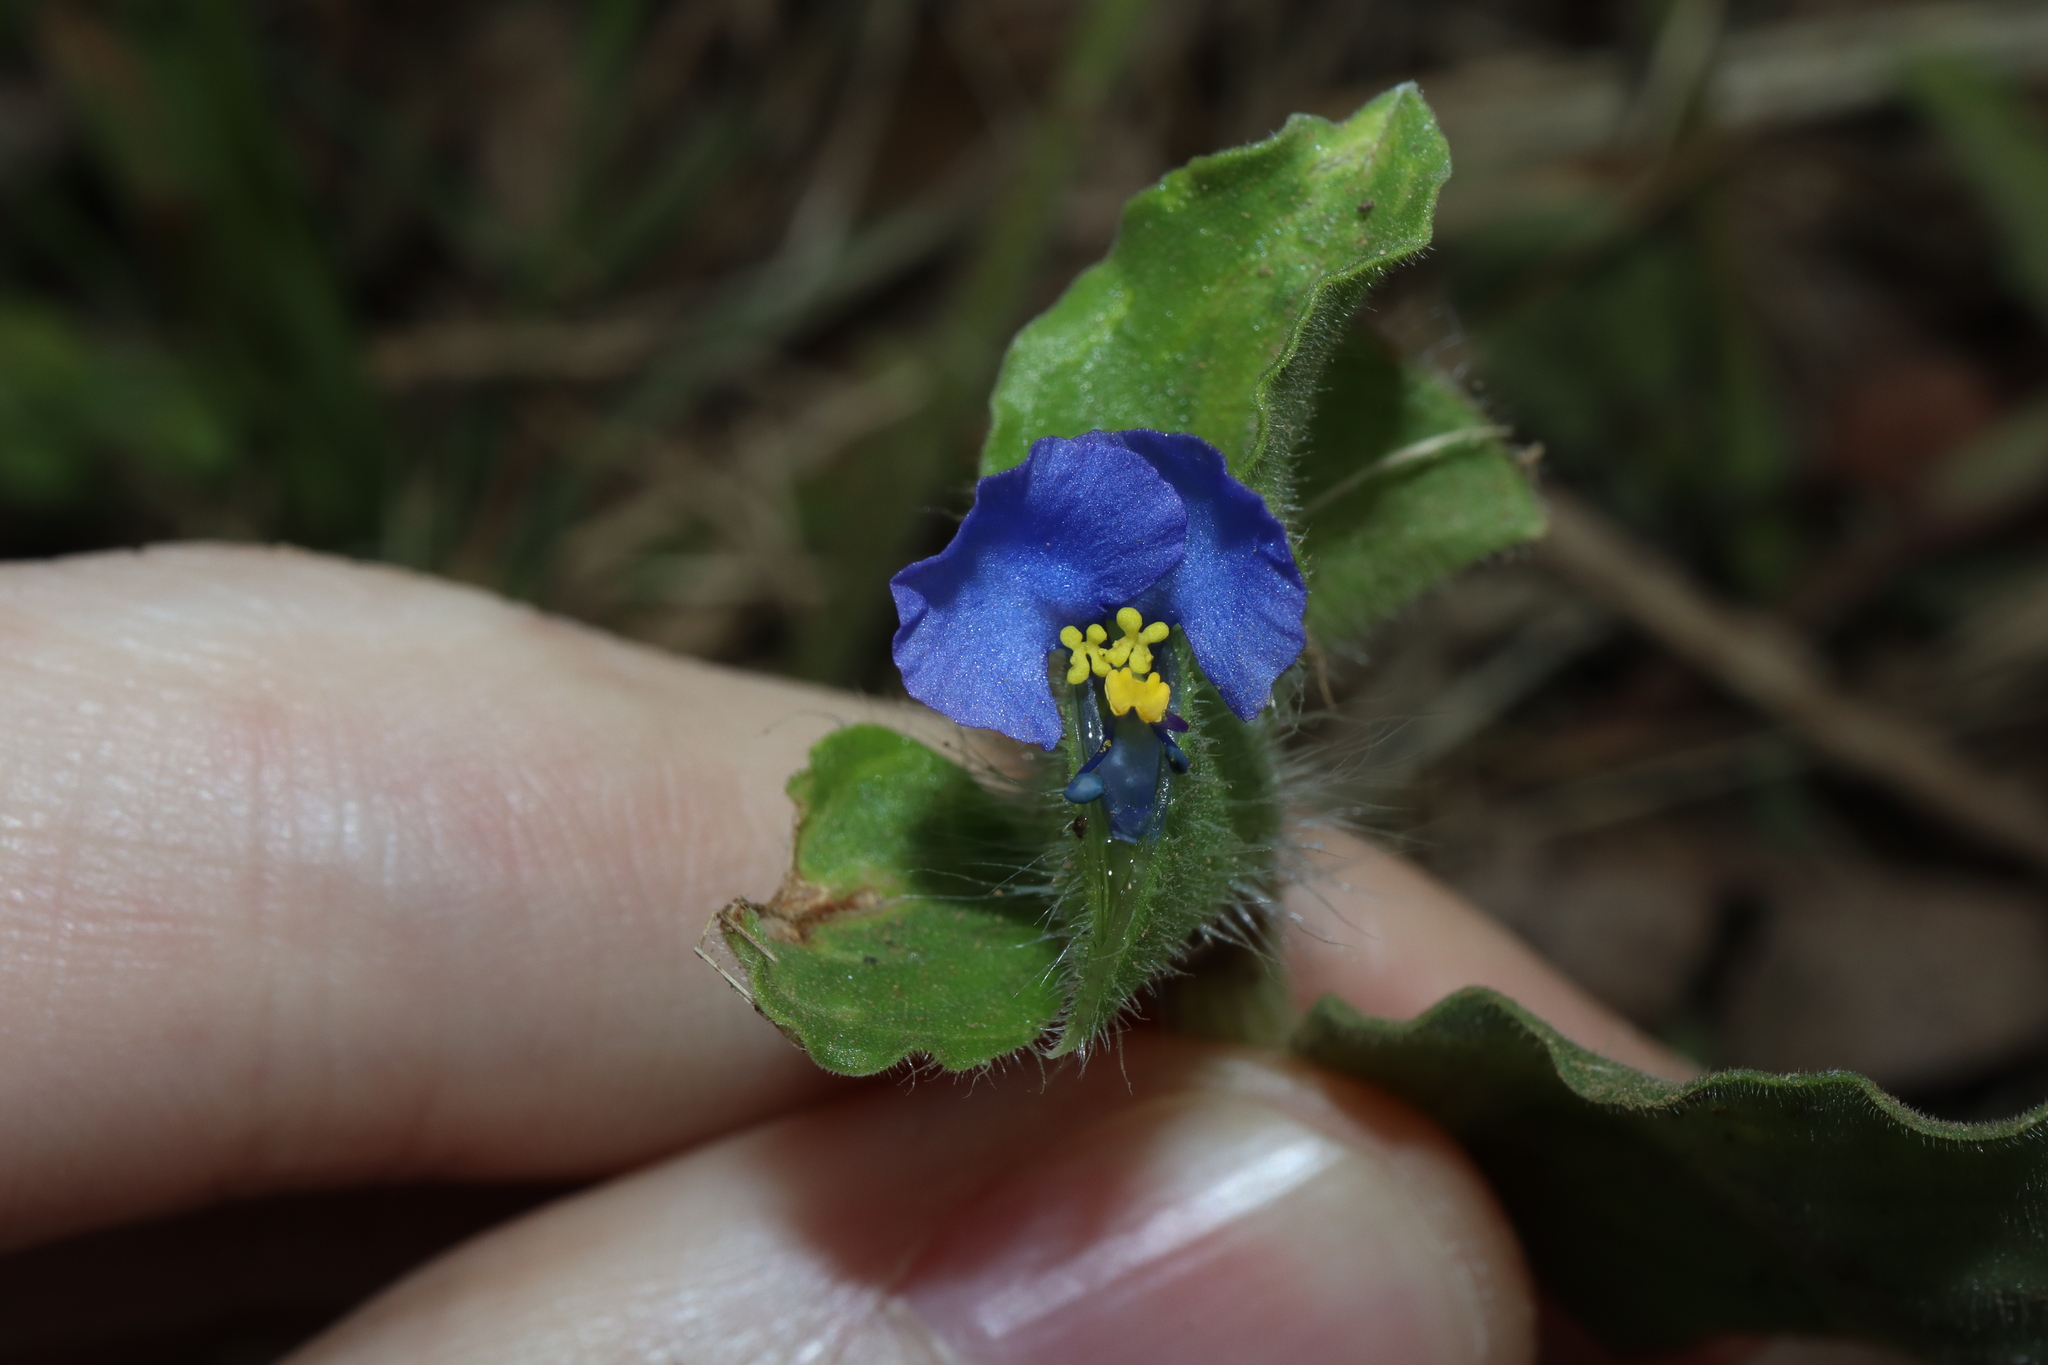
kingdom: Plantae
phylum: Tracheophyta
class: Liliopsida
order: Commelinales
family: Commelinaceae
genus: Commelina
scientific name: Commelina benghalensis
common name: Jio
